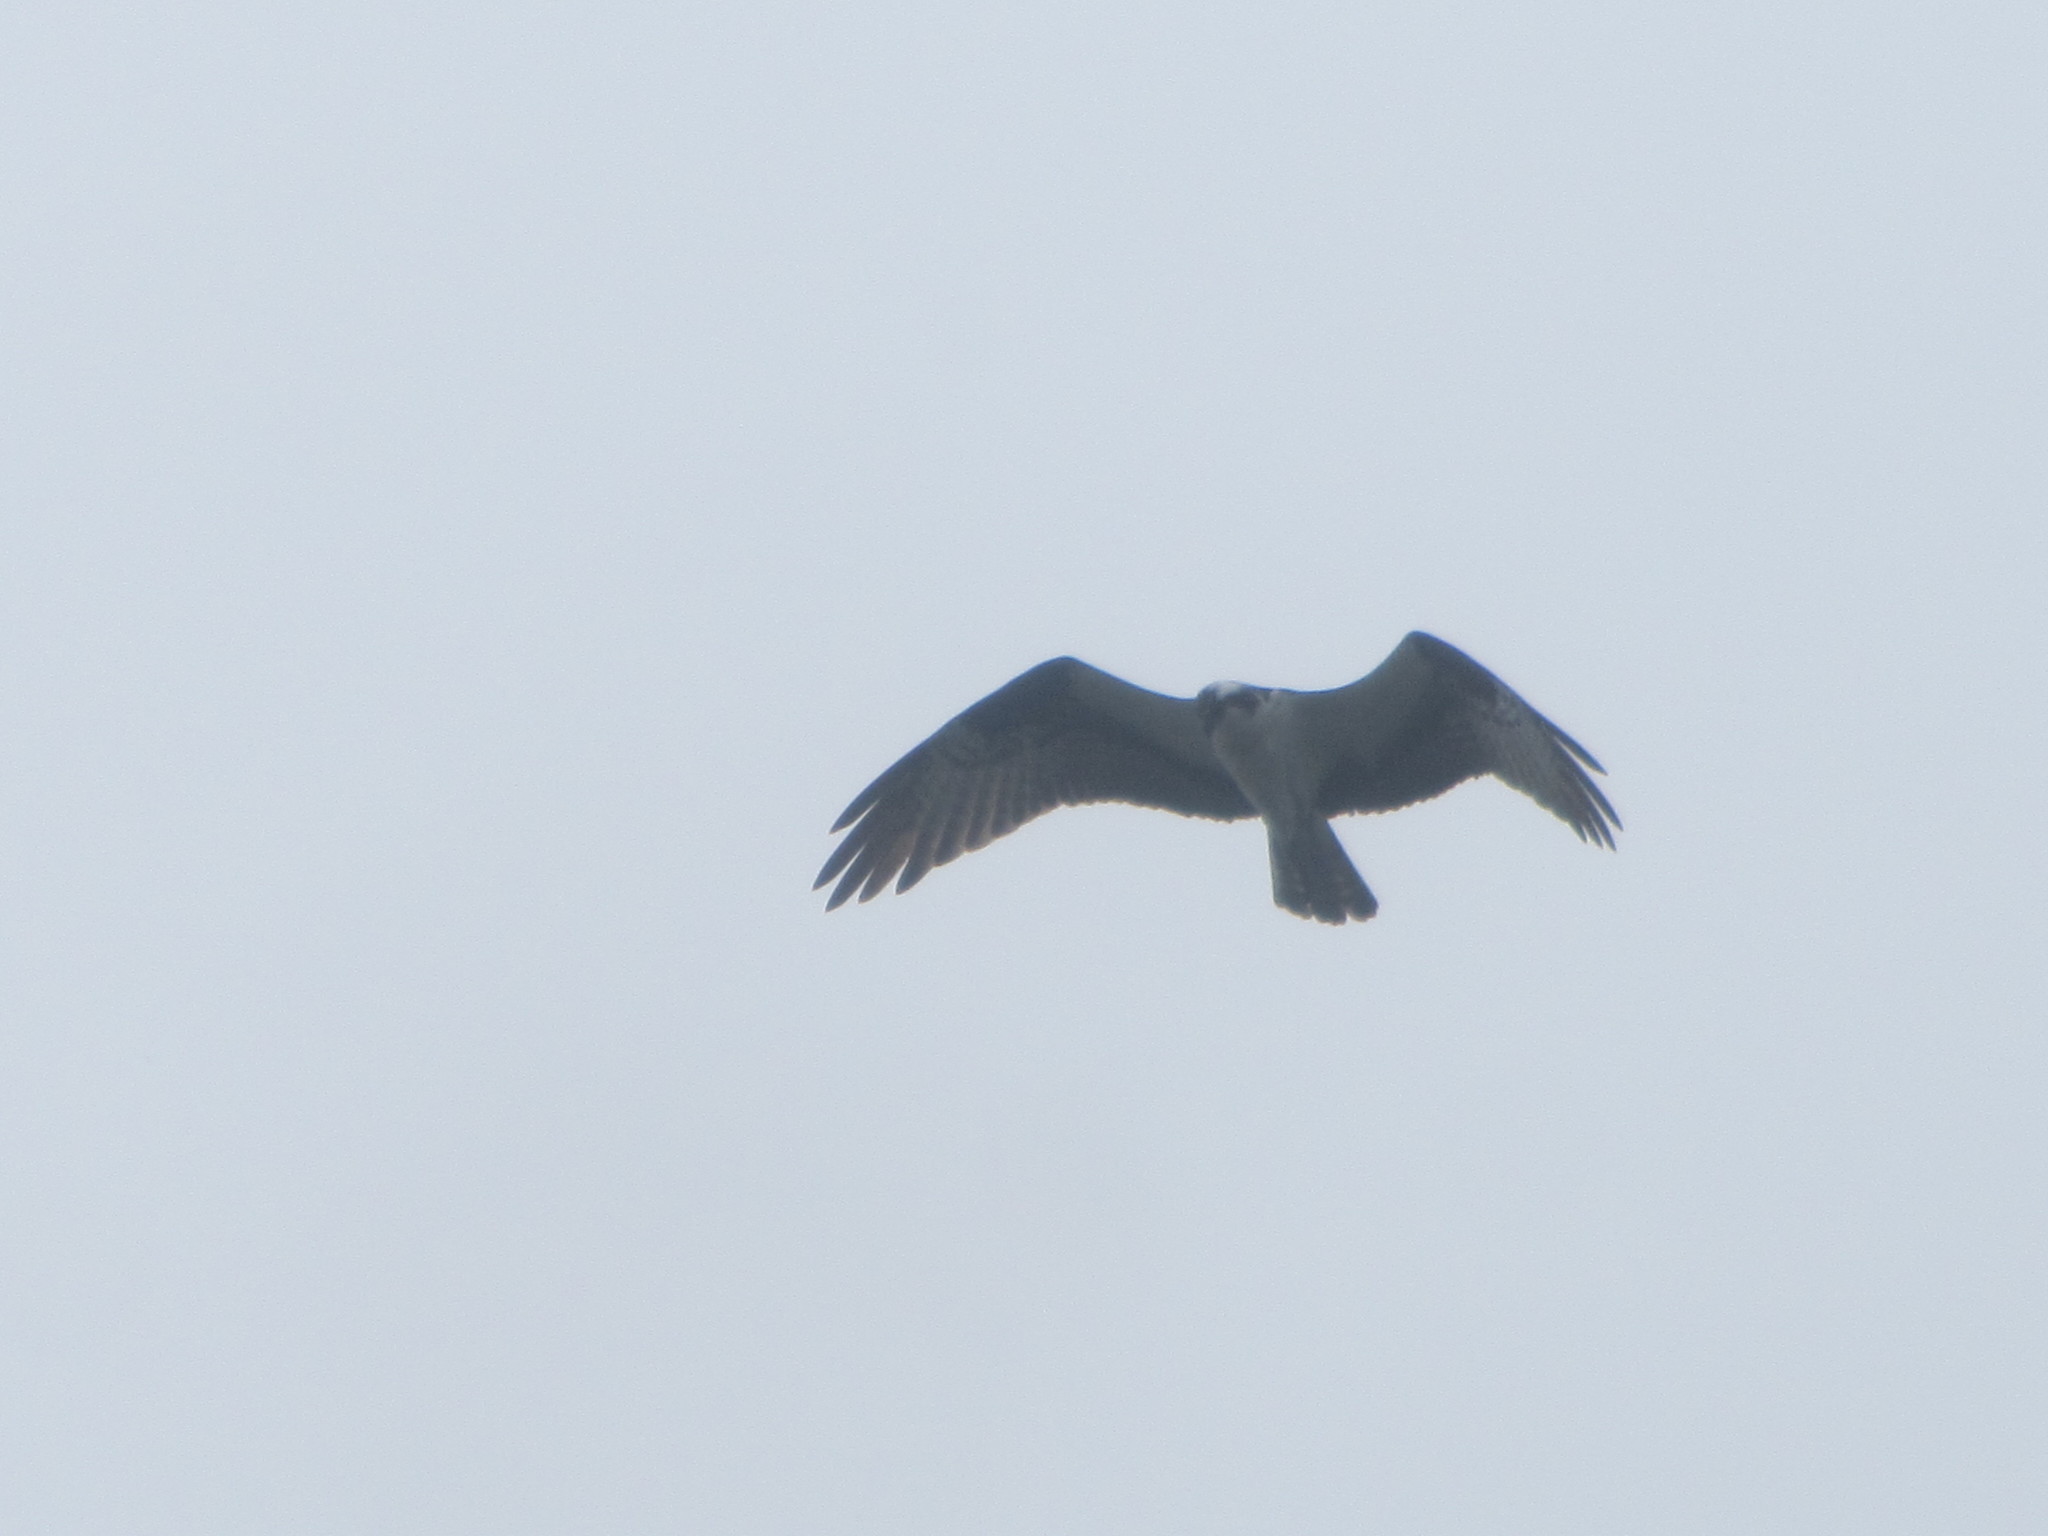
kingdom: Animalia
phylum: Chordata
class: Aves
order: Accipitriformes
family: Pandionidae
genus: Pandion
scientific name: Pandion haliaetus
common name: Osprey
